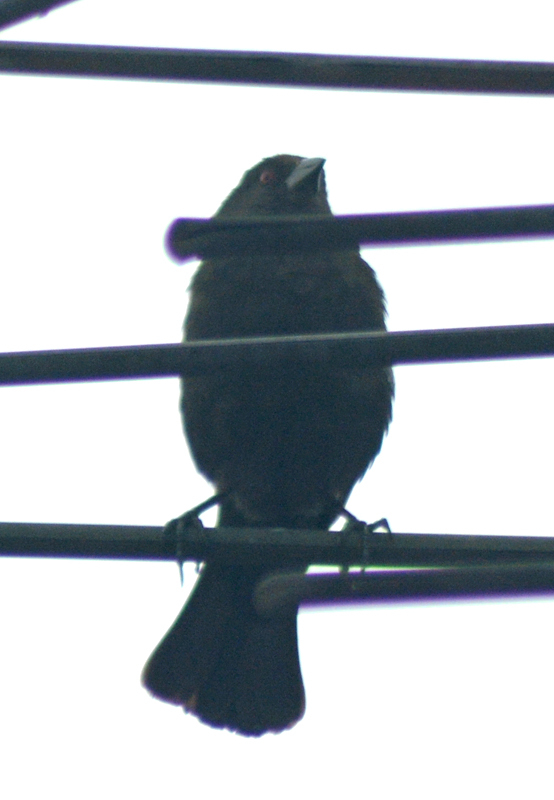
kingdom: Animalia
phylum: Chordata
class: Aves
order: Passeriformes
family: Icteridae
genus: Molothrus
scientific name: Molothrus aeneus
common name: Bronzed cowbird
